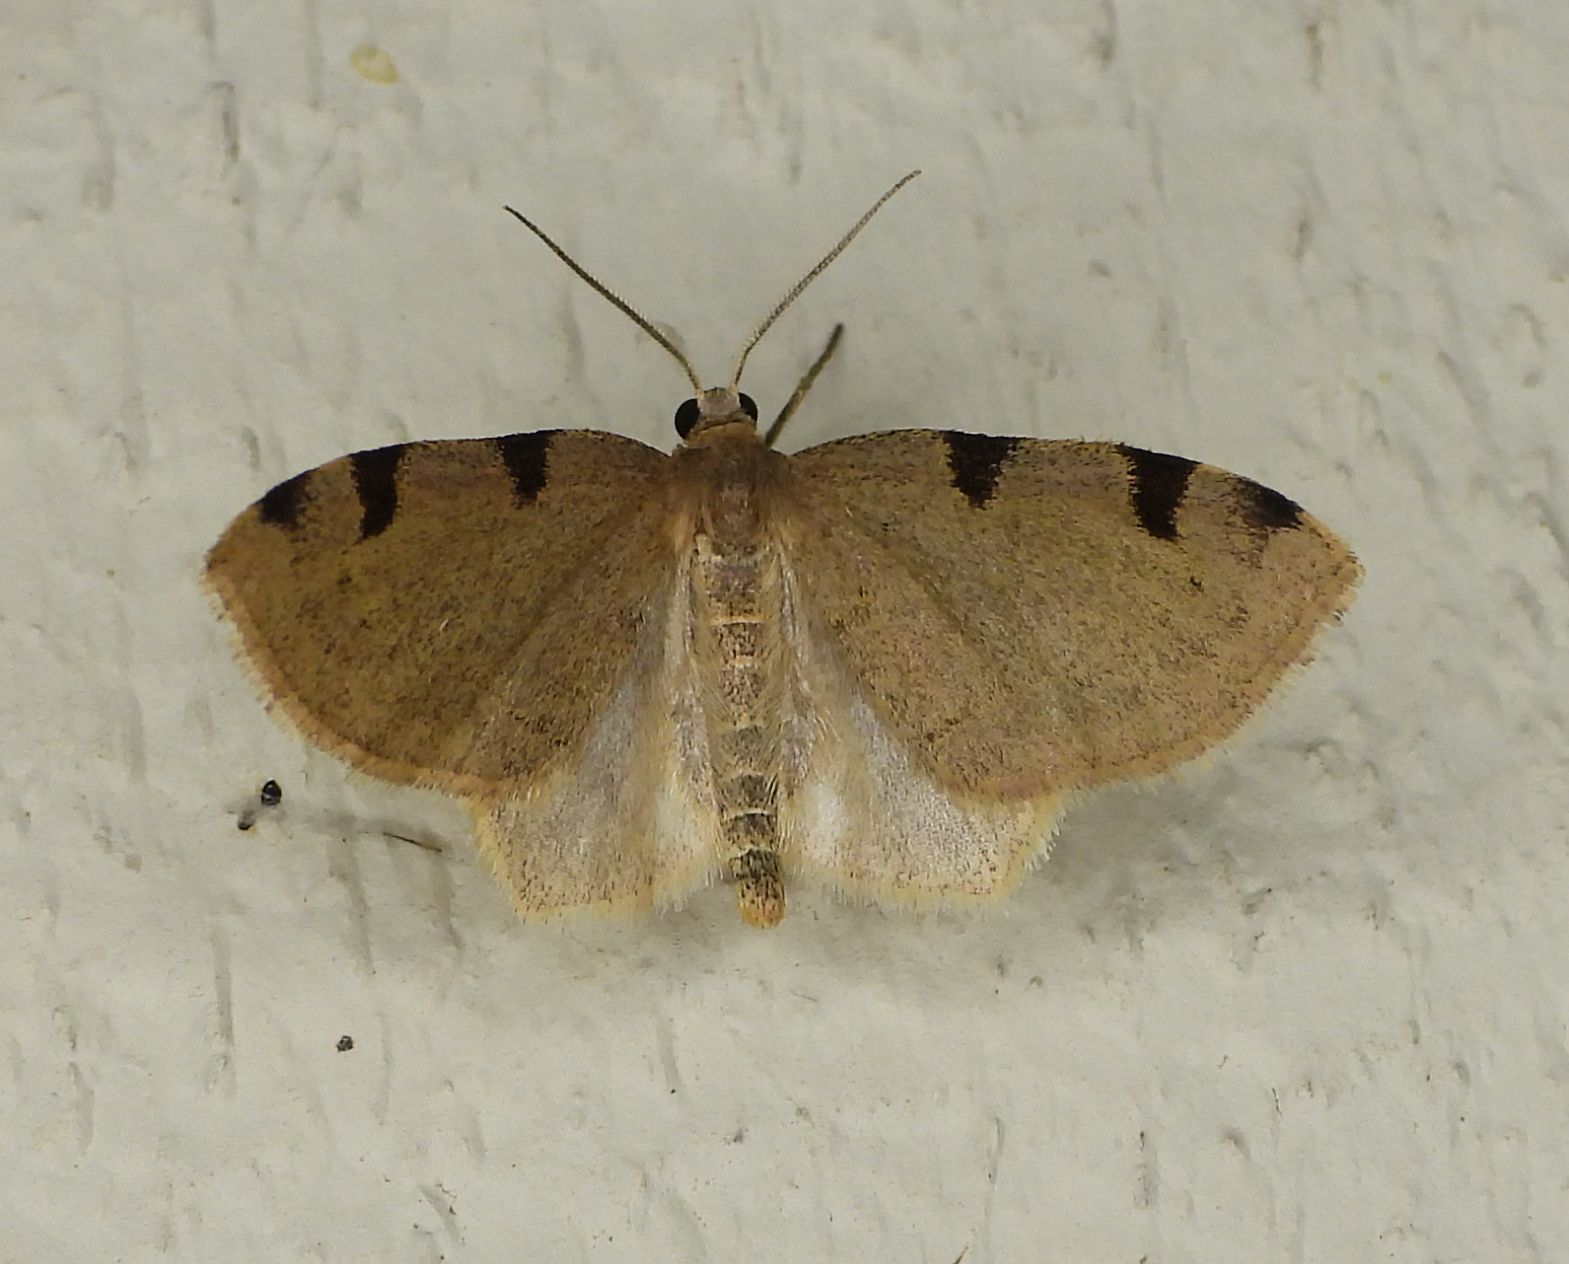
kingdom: Animalia
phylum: Arthropoda
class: Insecta
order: Lepidoptera
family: Geometridae
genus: Heterophleps
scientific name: Heterophleps triguttaria
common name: Three-spotted fillip
